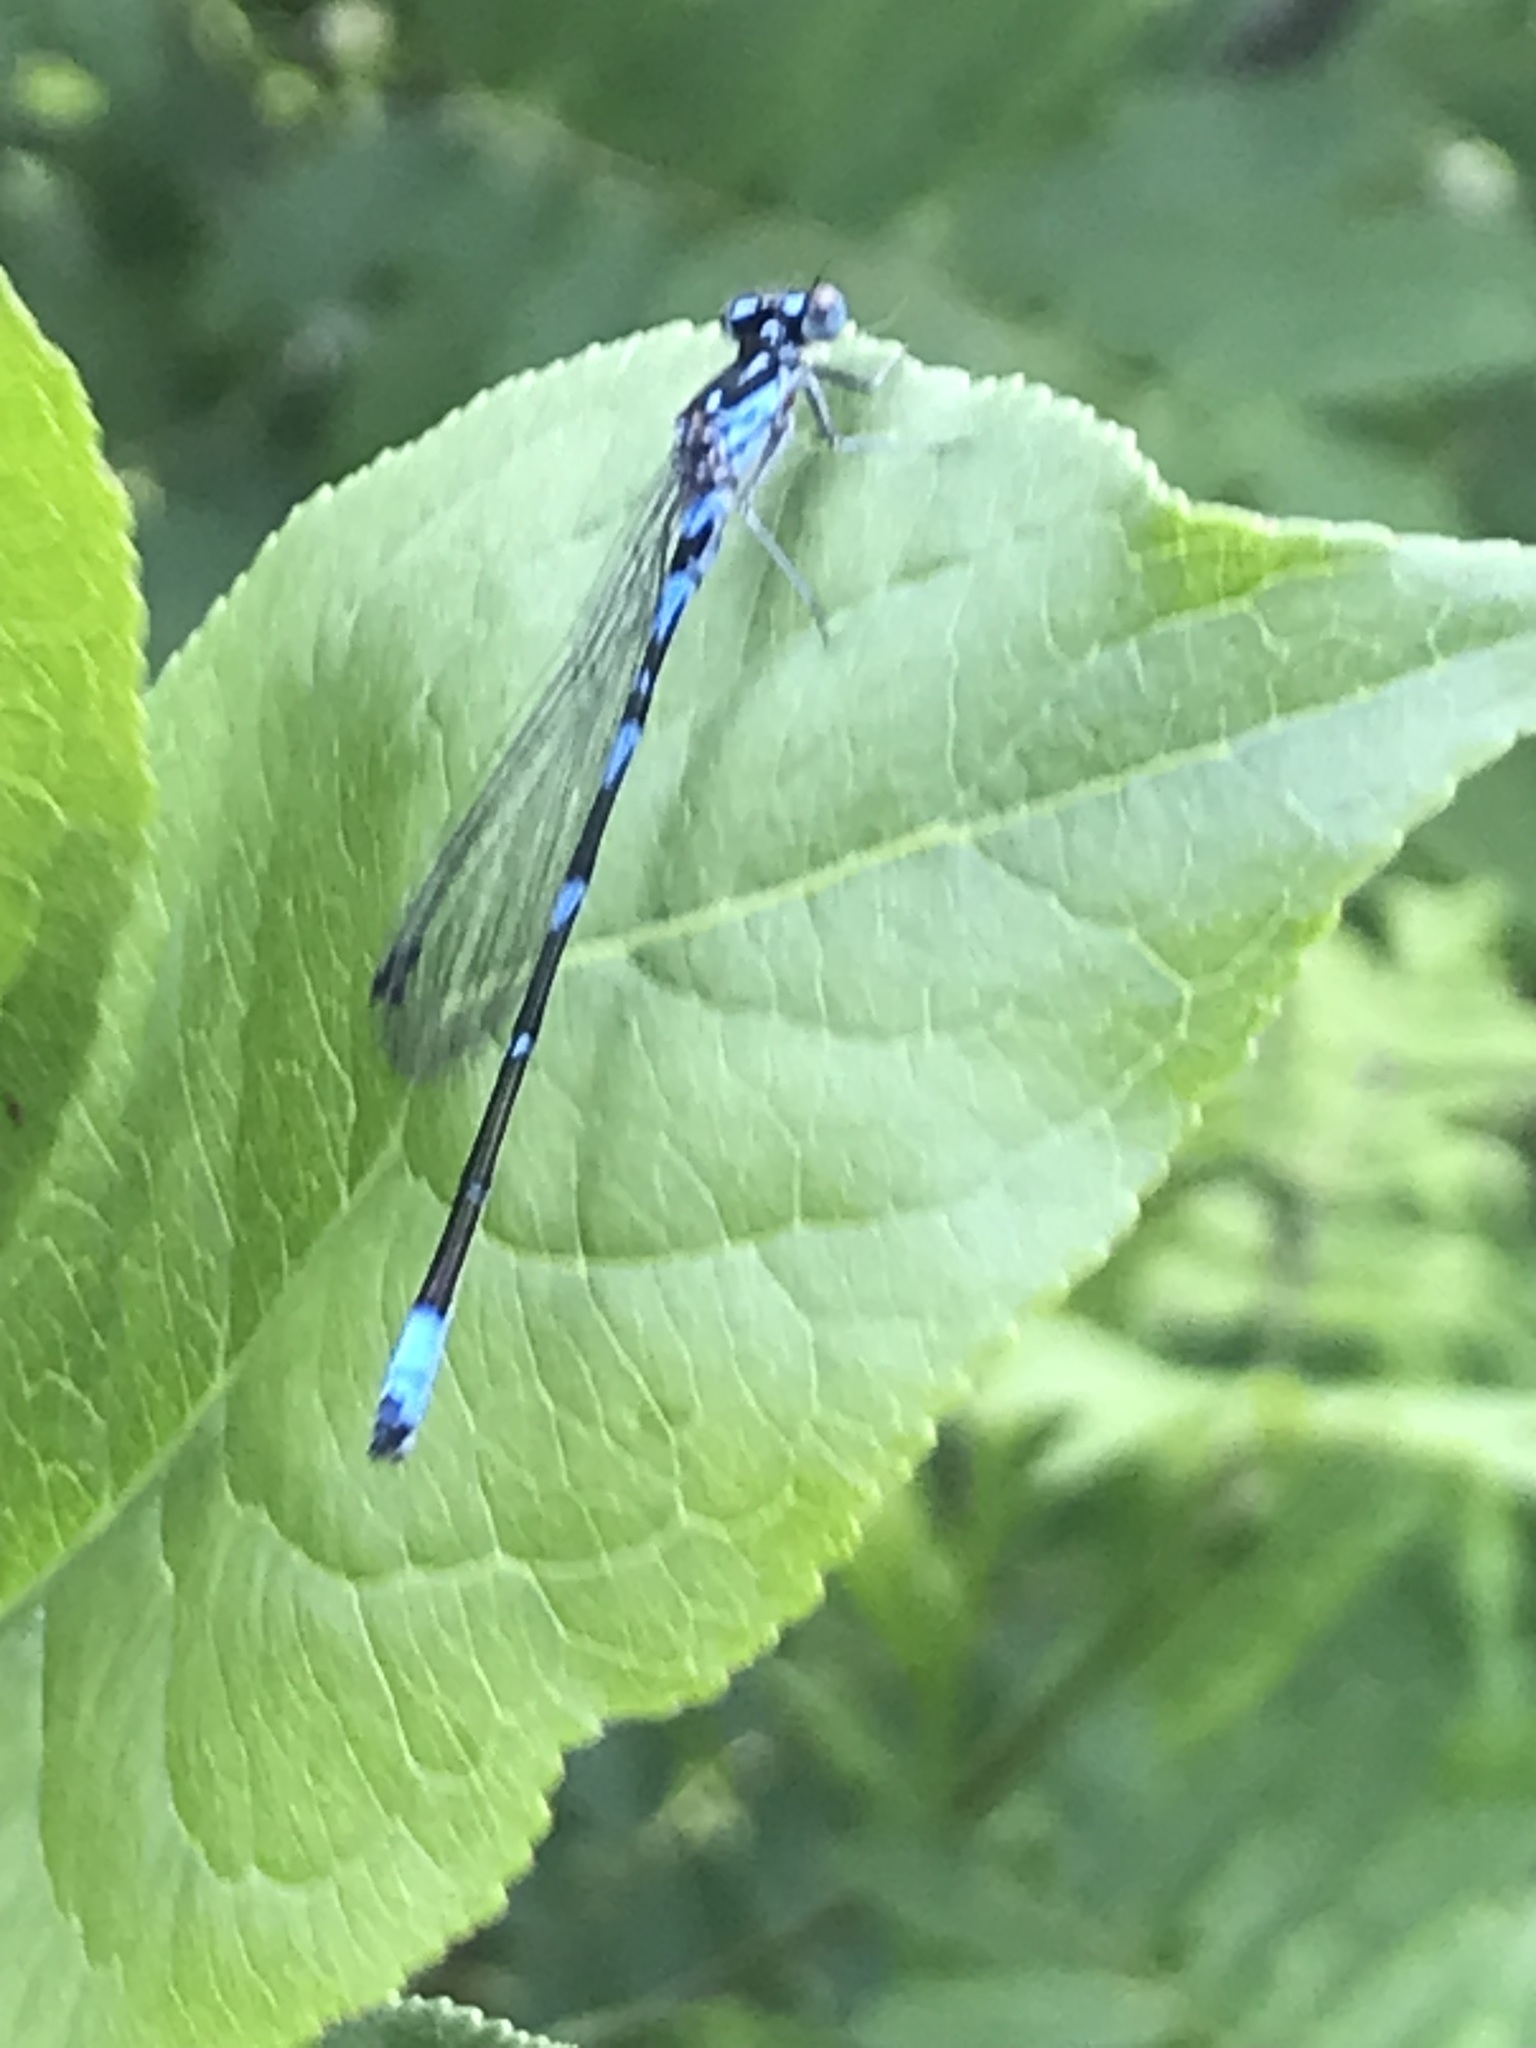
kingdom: Animalia
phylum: Arthropoda
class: Insecta
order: Odonata
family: Coenagrionidae
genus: Coenagrion
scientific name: Coenagrion pulchellum
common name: Variable bluet
